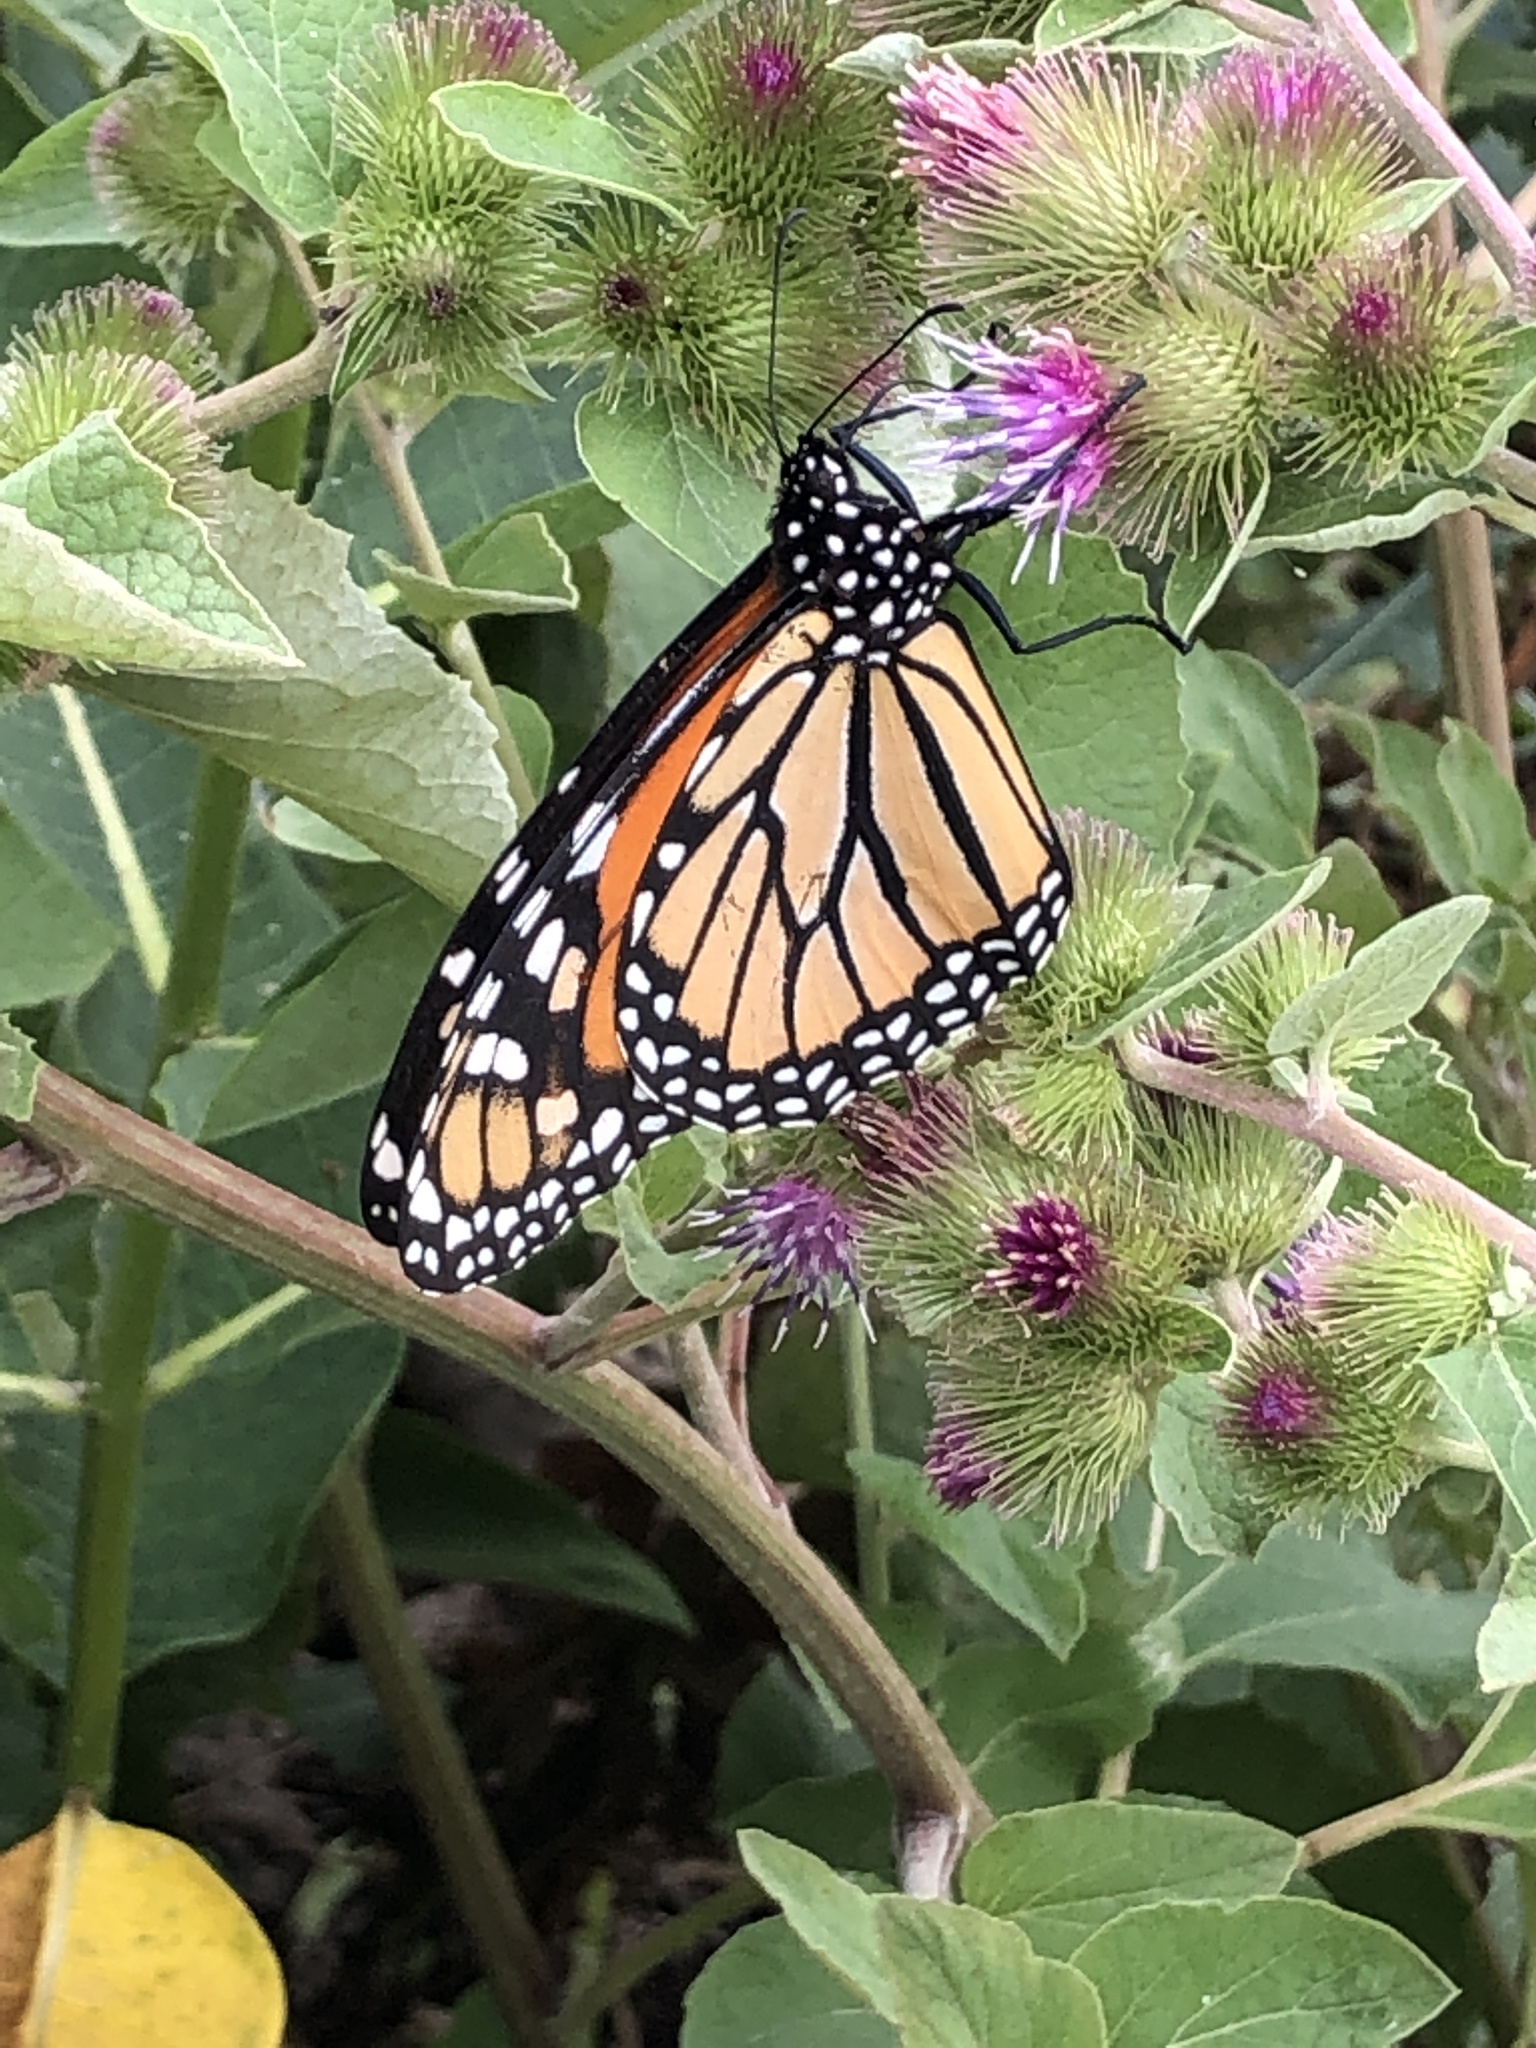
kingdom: Animalia
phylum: Arthropoda
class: Insecta
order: Lepidoptera
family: Nymphalidae
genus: Danaus
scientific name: Danaus plexippus
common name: Monarch
